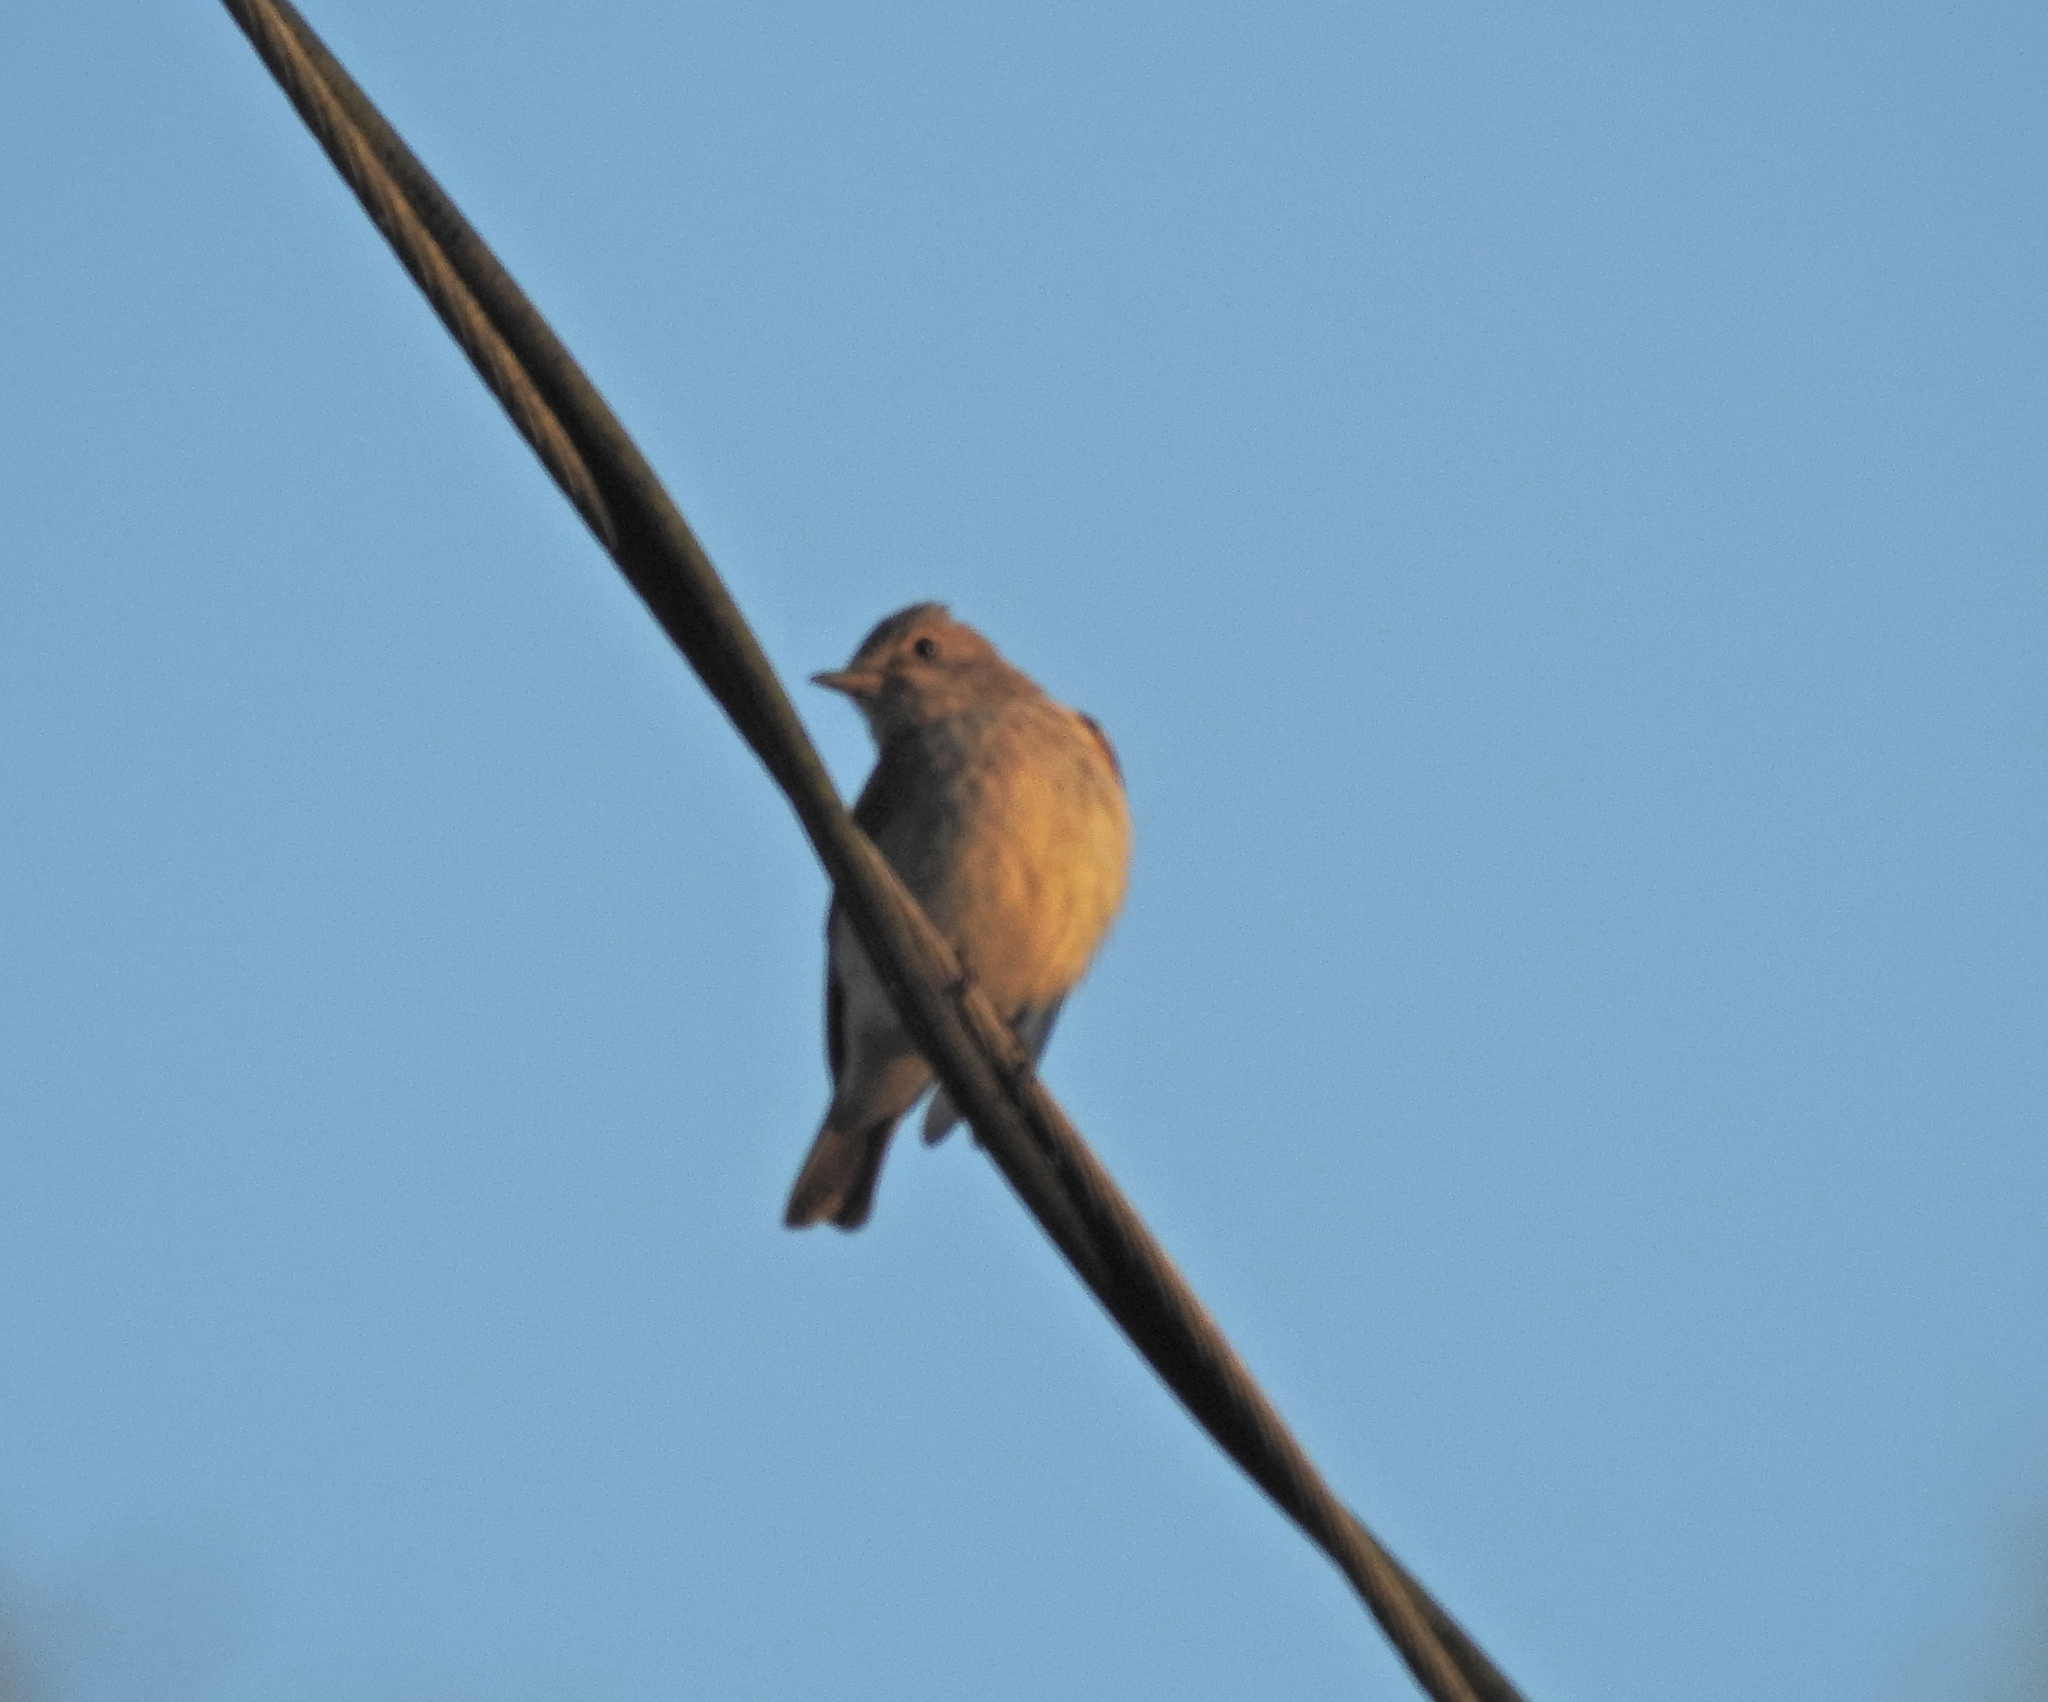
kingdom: Animalia
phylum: Chordata
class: Aves
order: Passeriformes
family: Muscicapidae
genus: Muscicapa
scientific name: Muscicapa striata
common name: Spotted flycatcher
